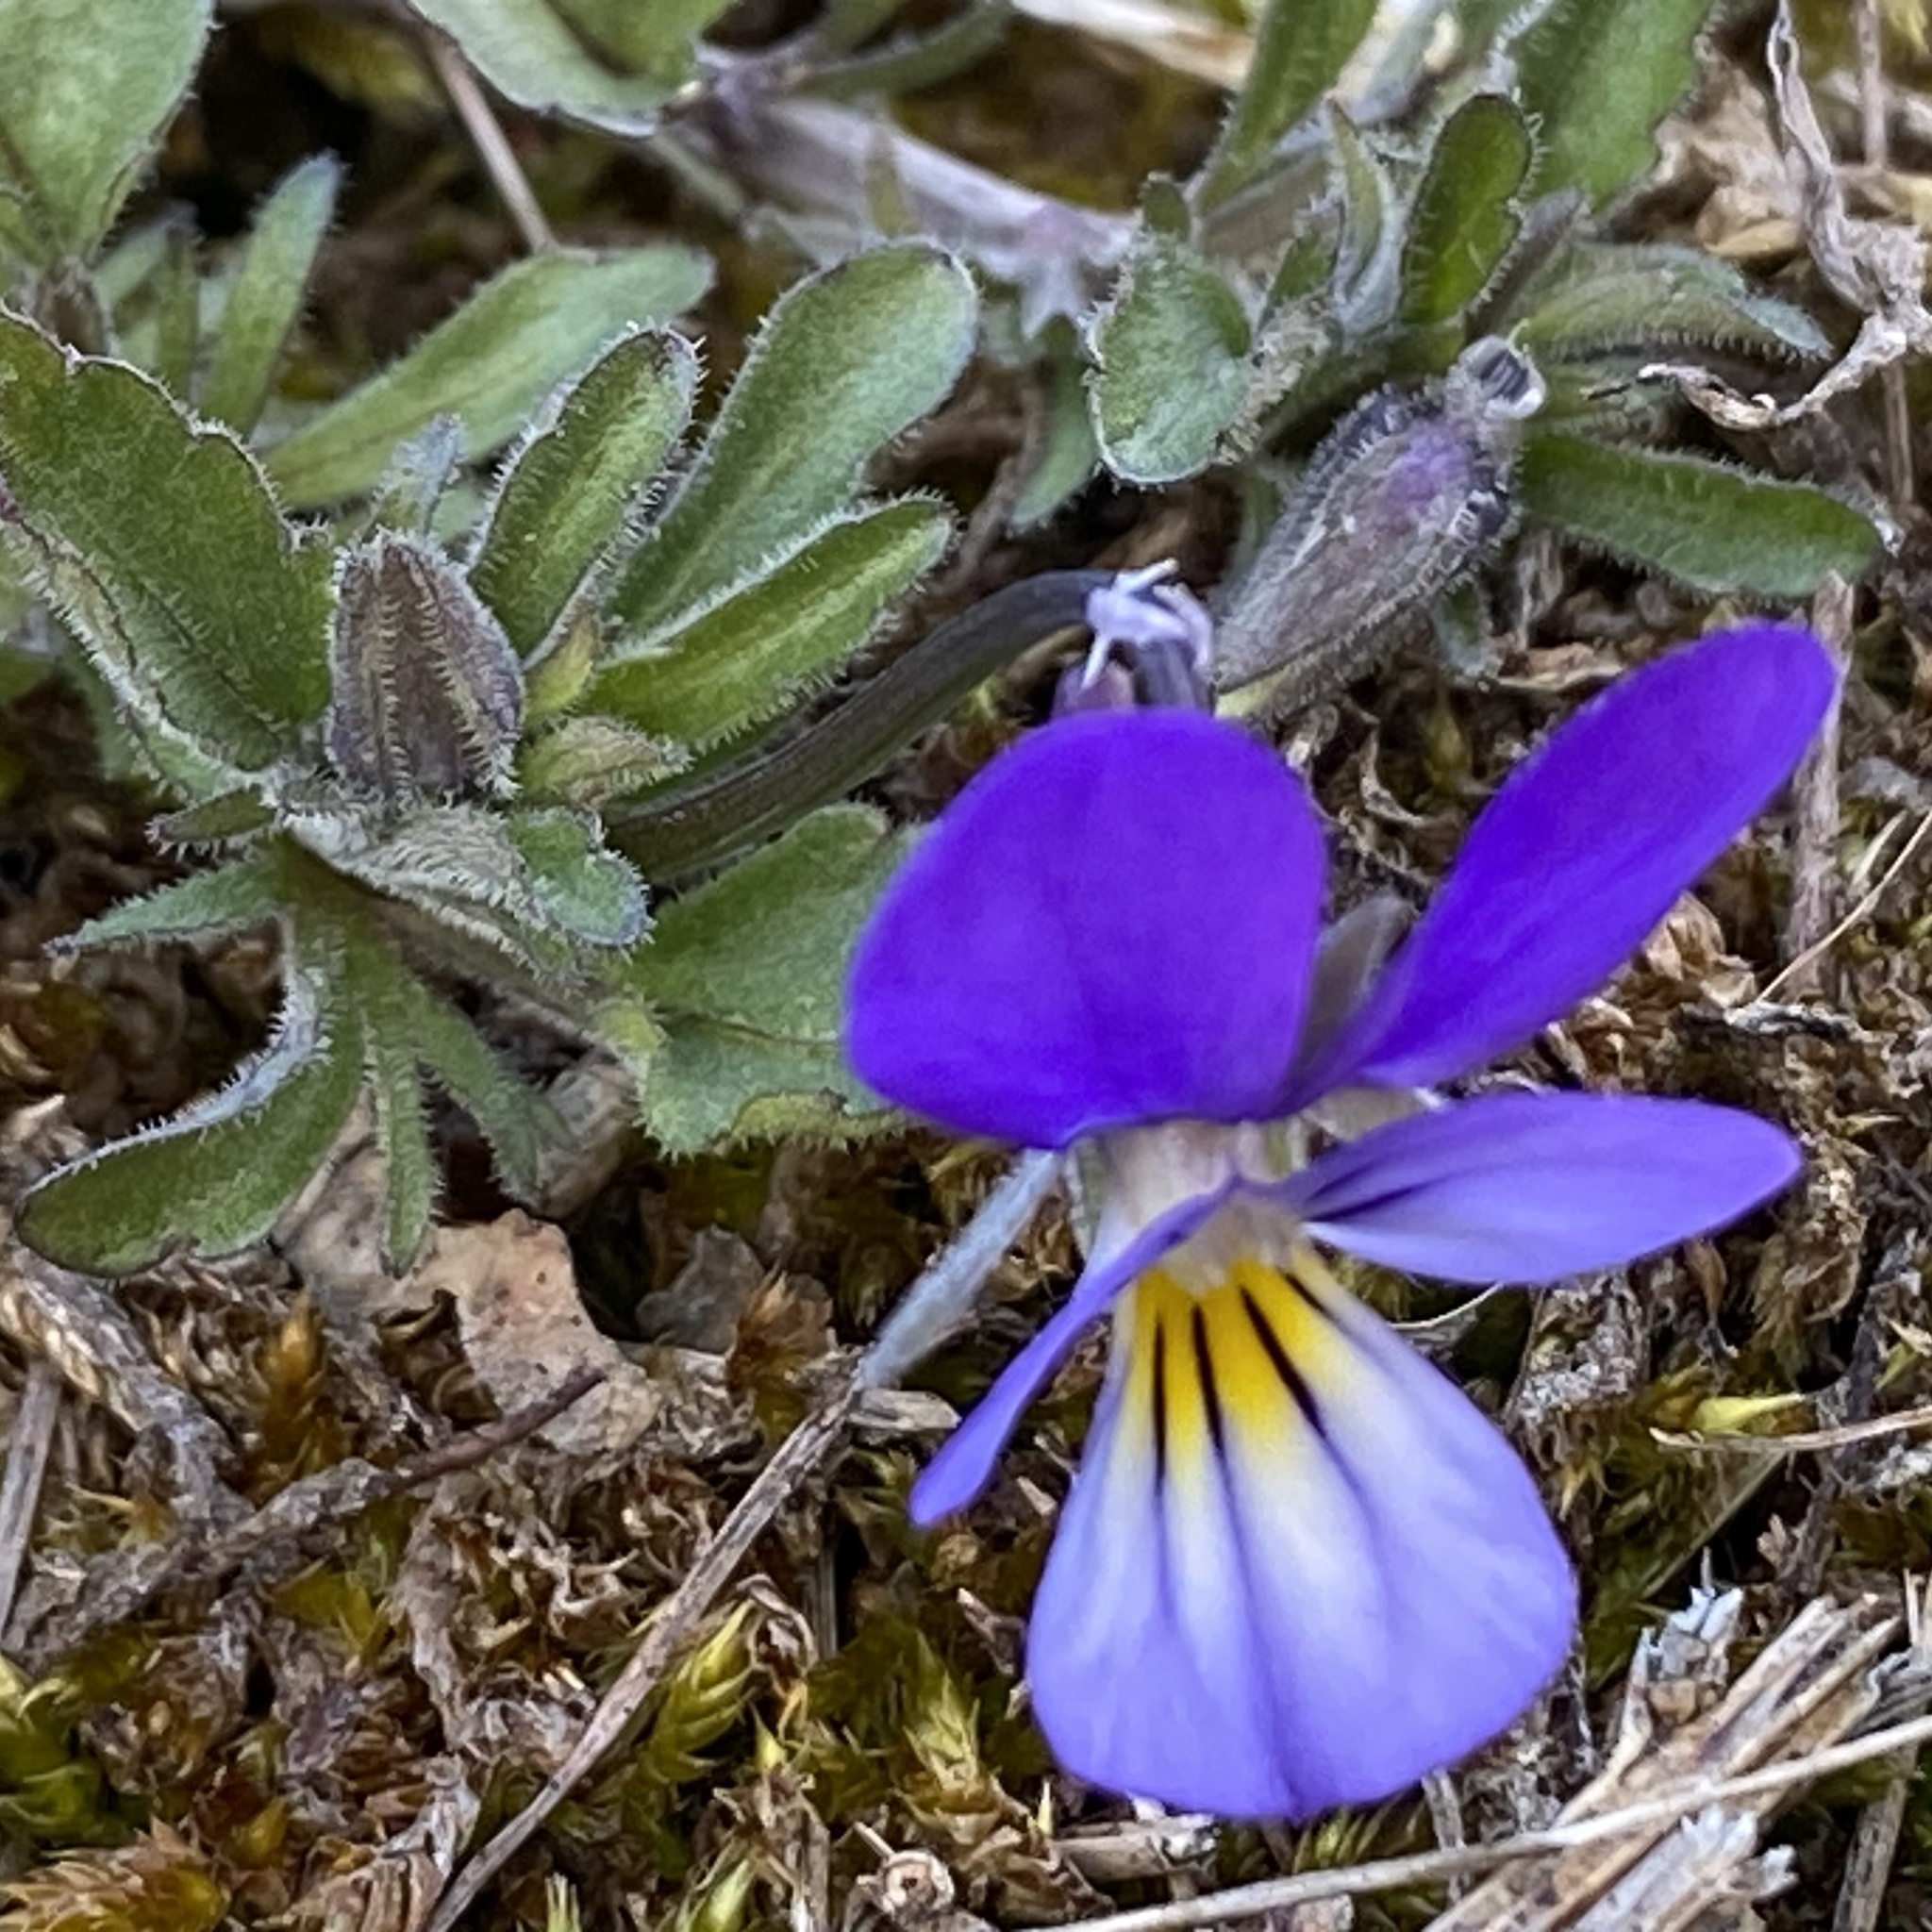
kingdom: Plantae
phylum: Tracheophyta
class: Magnoliopsida
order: Malpighiales
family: Violaceae
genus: Viola
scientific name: Viola tricolor
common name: Pansy
